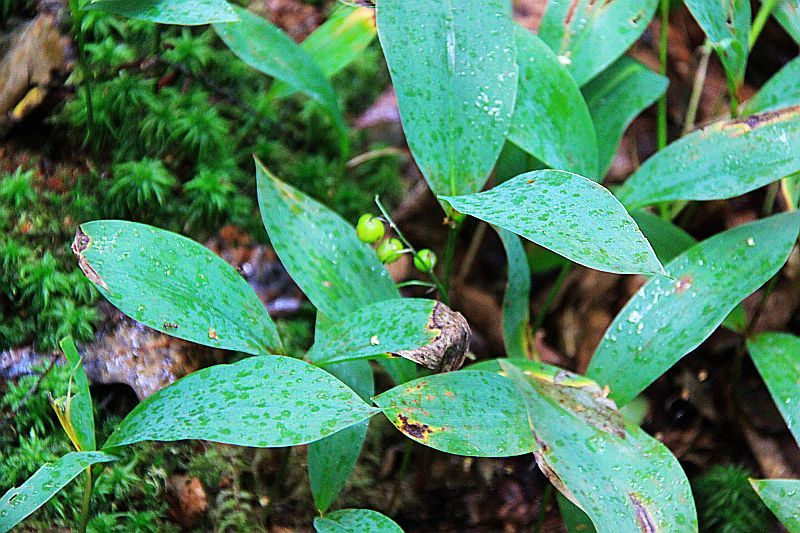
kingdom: Plantae
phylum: Tracheophyta
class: Liliopsida
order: Asparagales
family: Asparagaceae
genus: Convallaria
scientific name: Convallaria majalis
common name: Lily-of-the-valley
